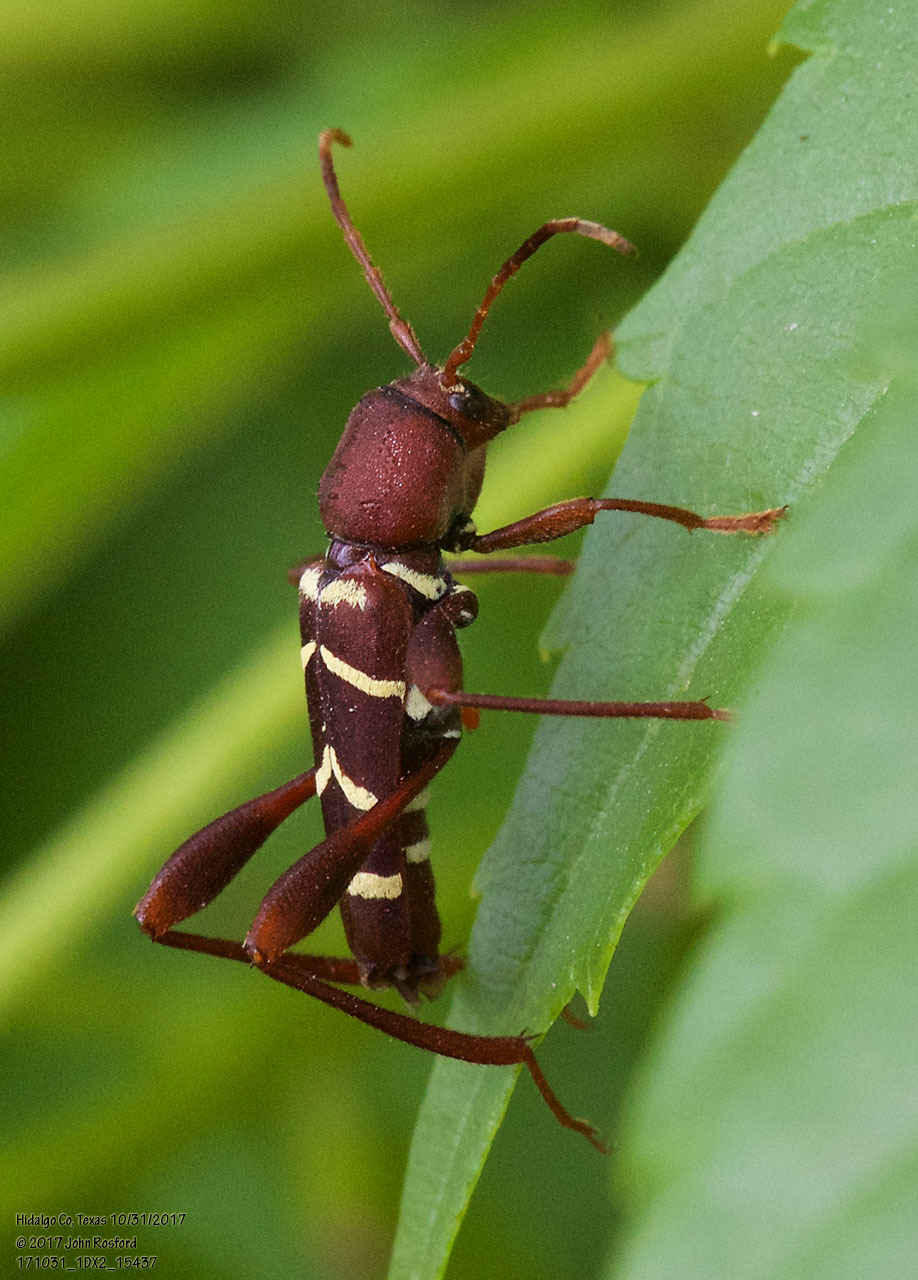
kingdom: Animalia
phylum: Arthropoda
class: Insecta
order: Coleoptera
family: Cerambycidae
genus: Neoclytus
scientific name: Neoclytus acuminatus
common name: Read-headed ash borer
